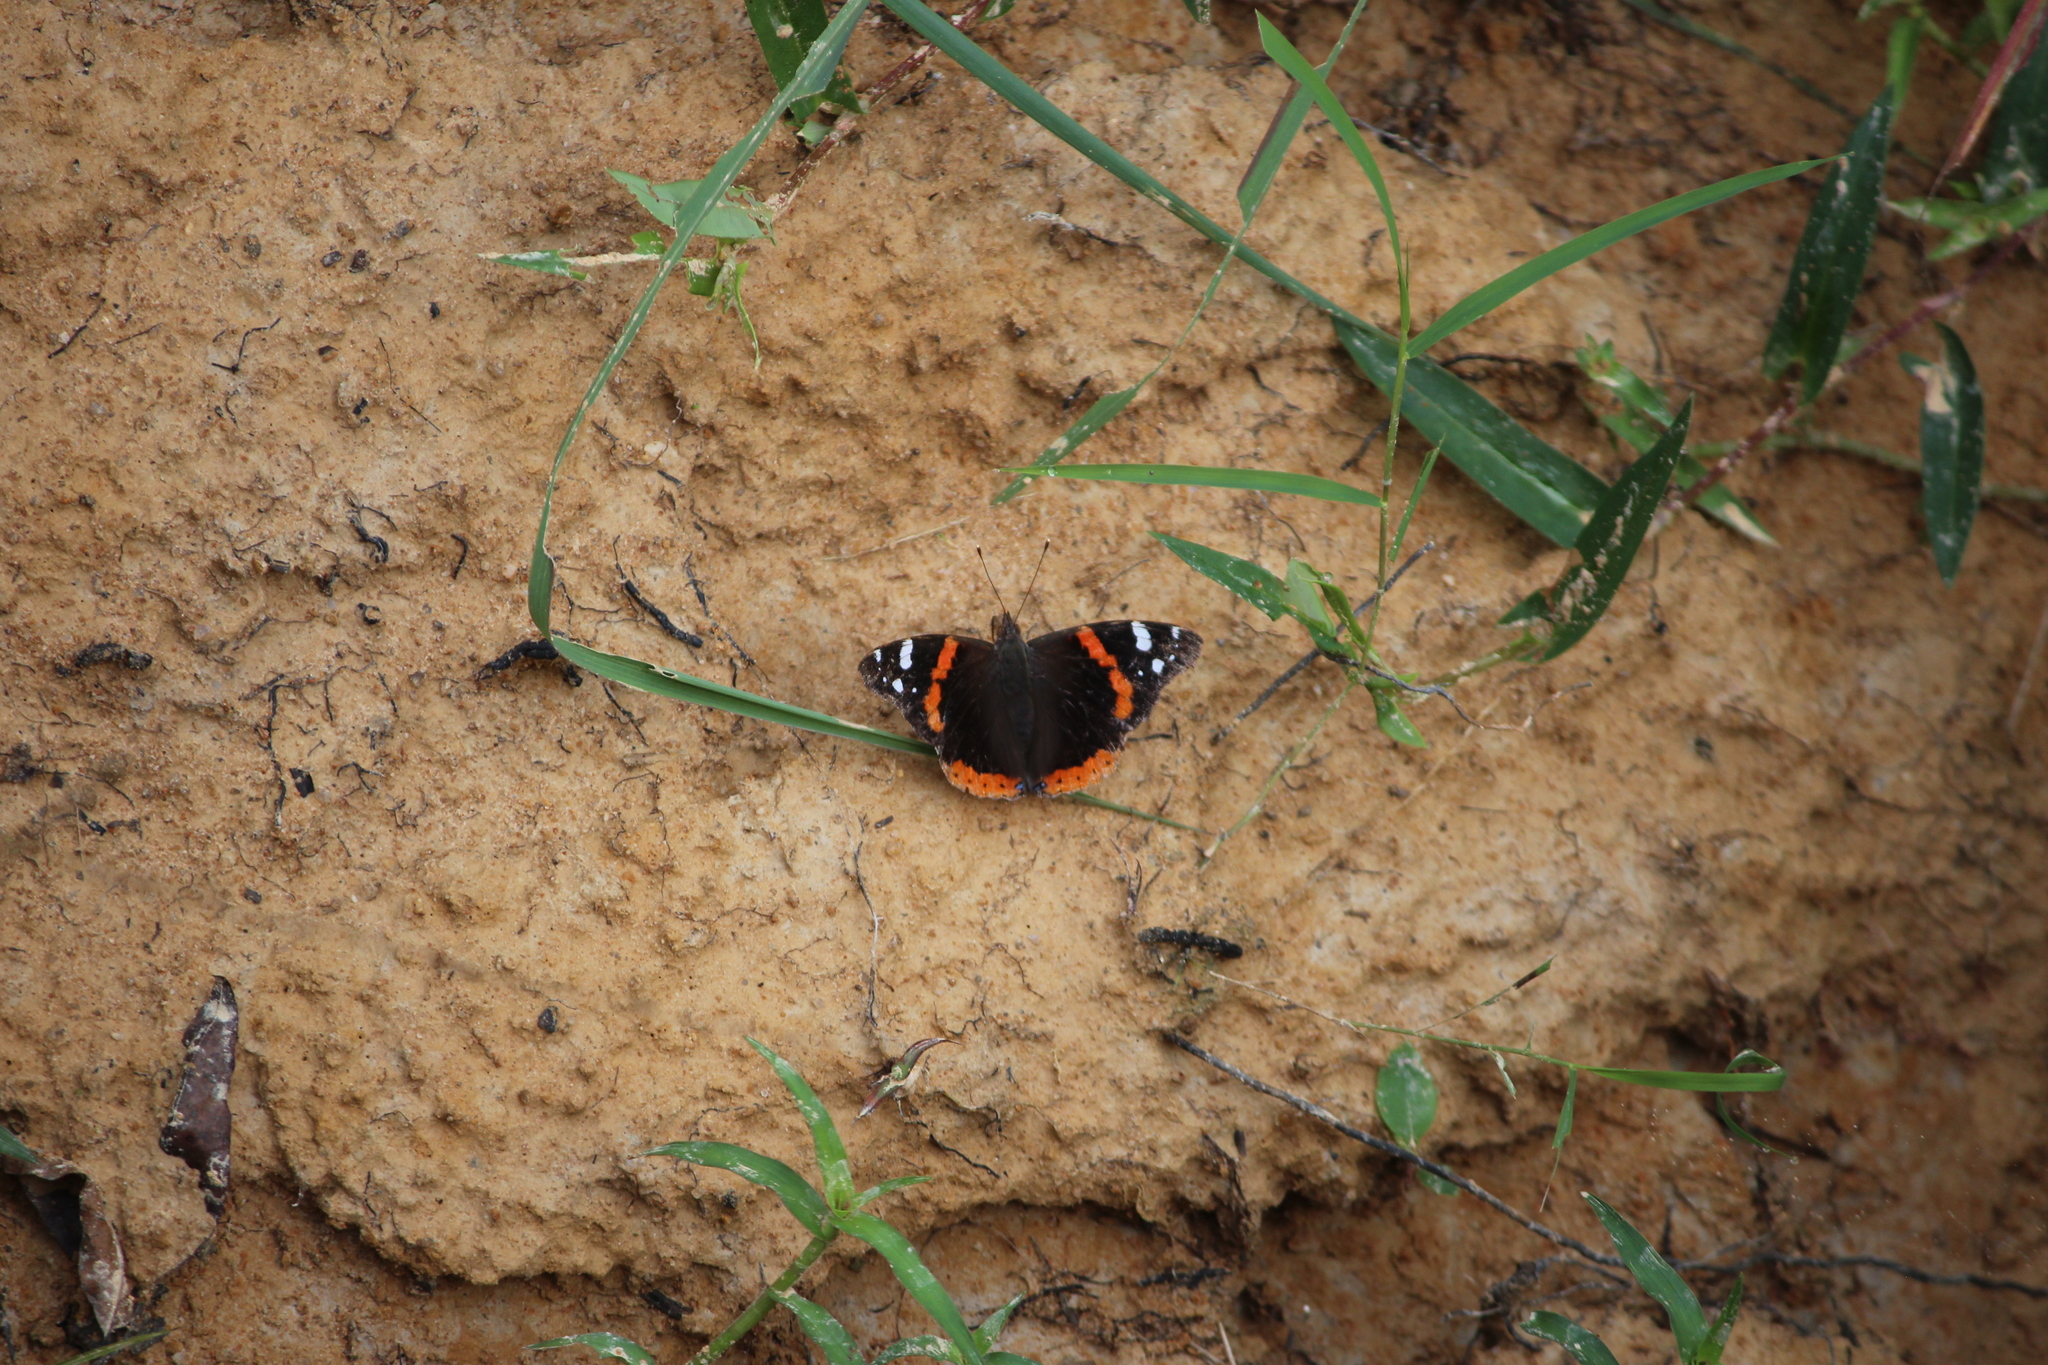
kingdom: Animalia
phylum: Arthropoda
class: Insecta
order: Lepidoptera
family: Nymphalidae
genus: Vanessa
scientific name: Vanessa atalanta
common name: Red admiral
